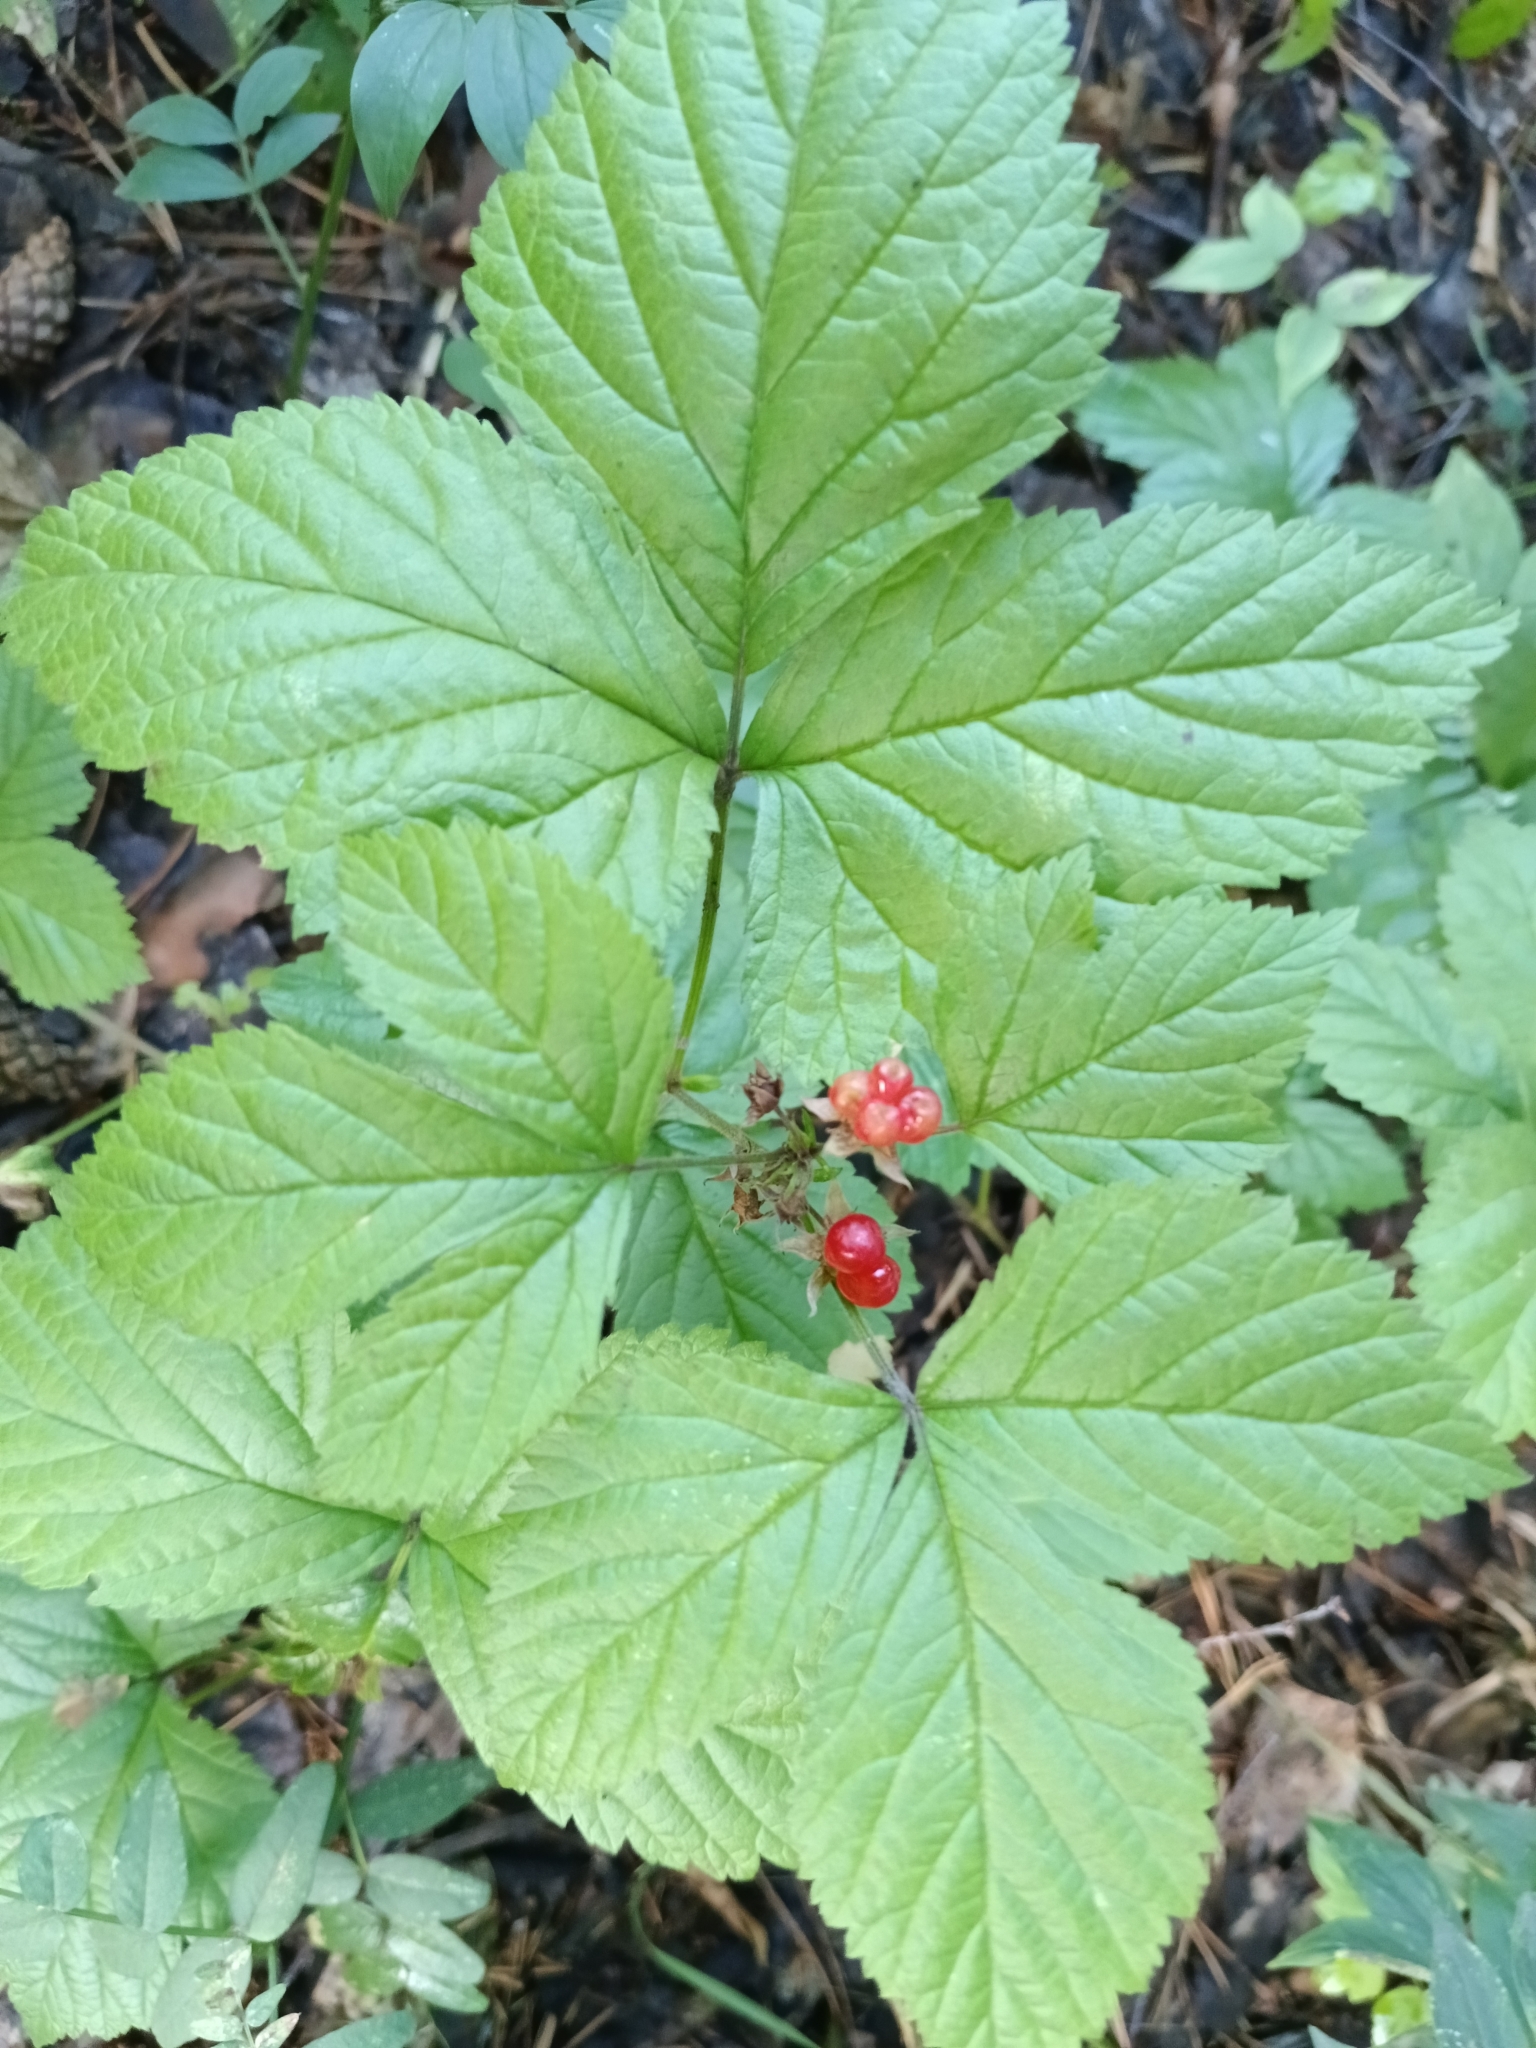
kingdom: Plantae
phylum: Tracheophyta
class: Magnoliopsida
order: Rosales
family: Rosaceae
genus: Rubus
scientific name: Rubus saxatilis
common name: Stone bramble
